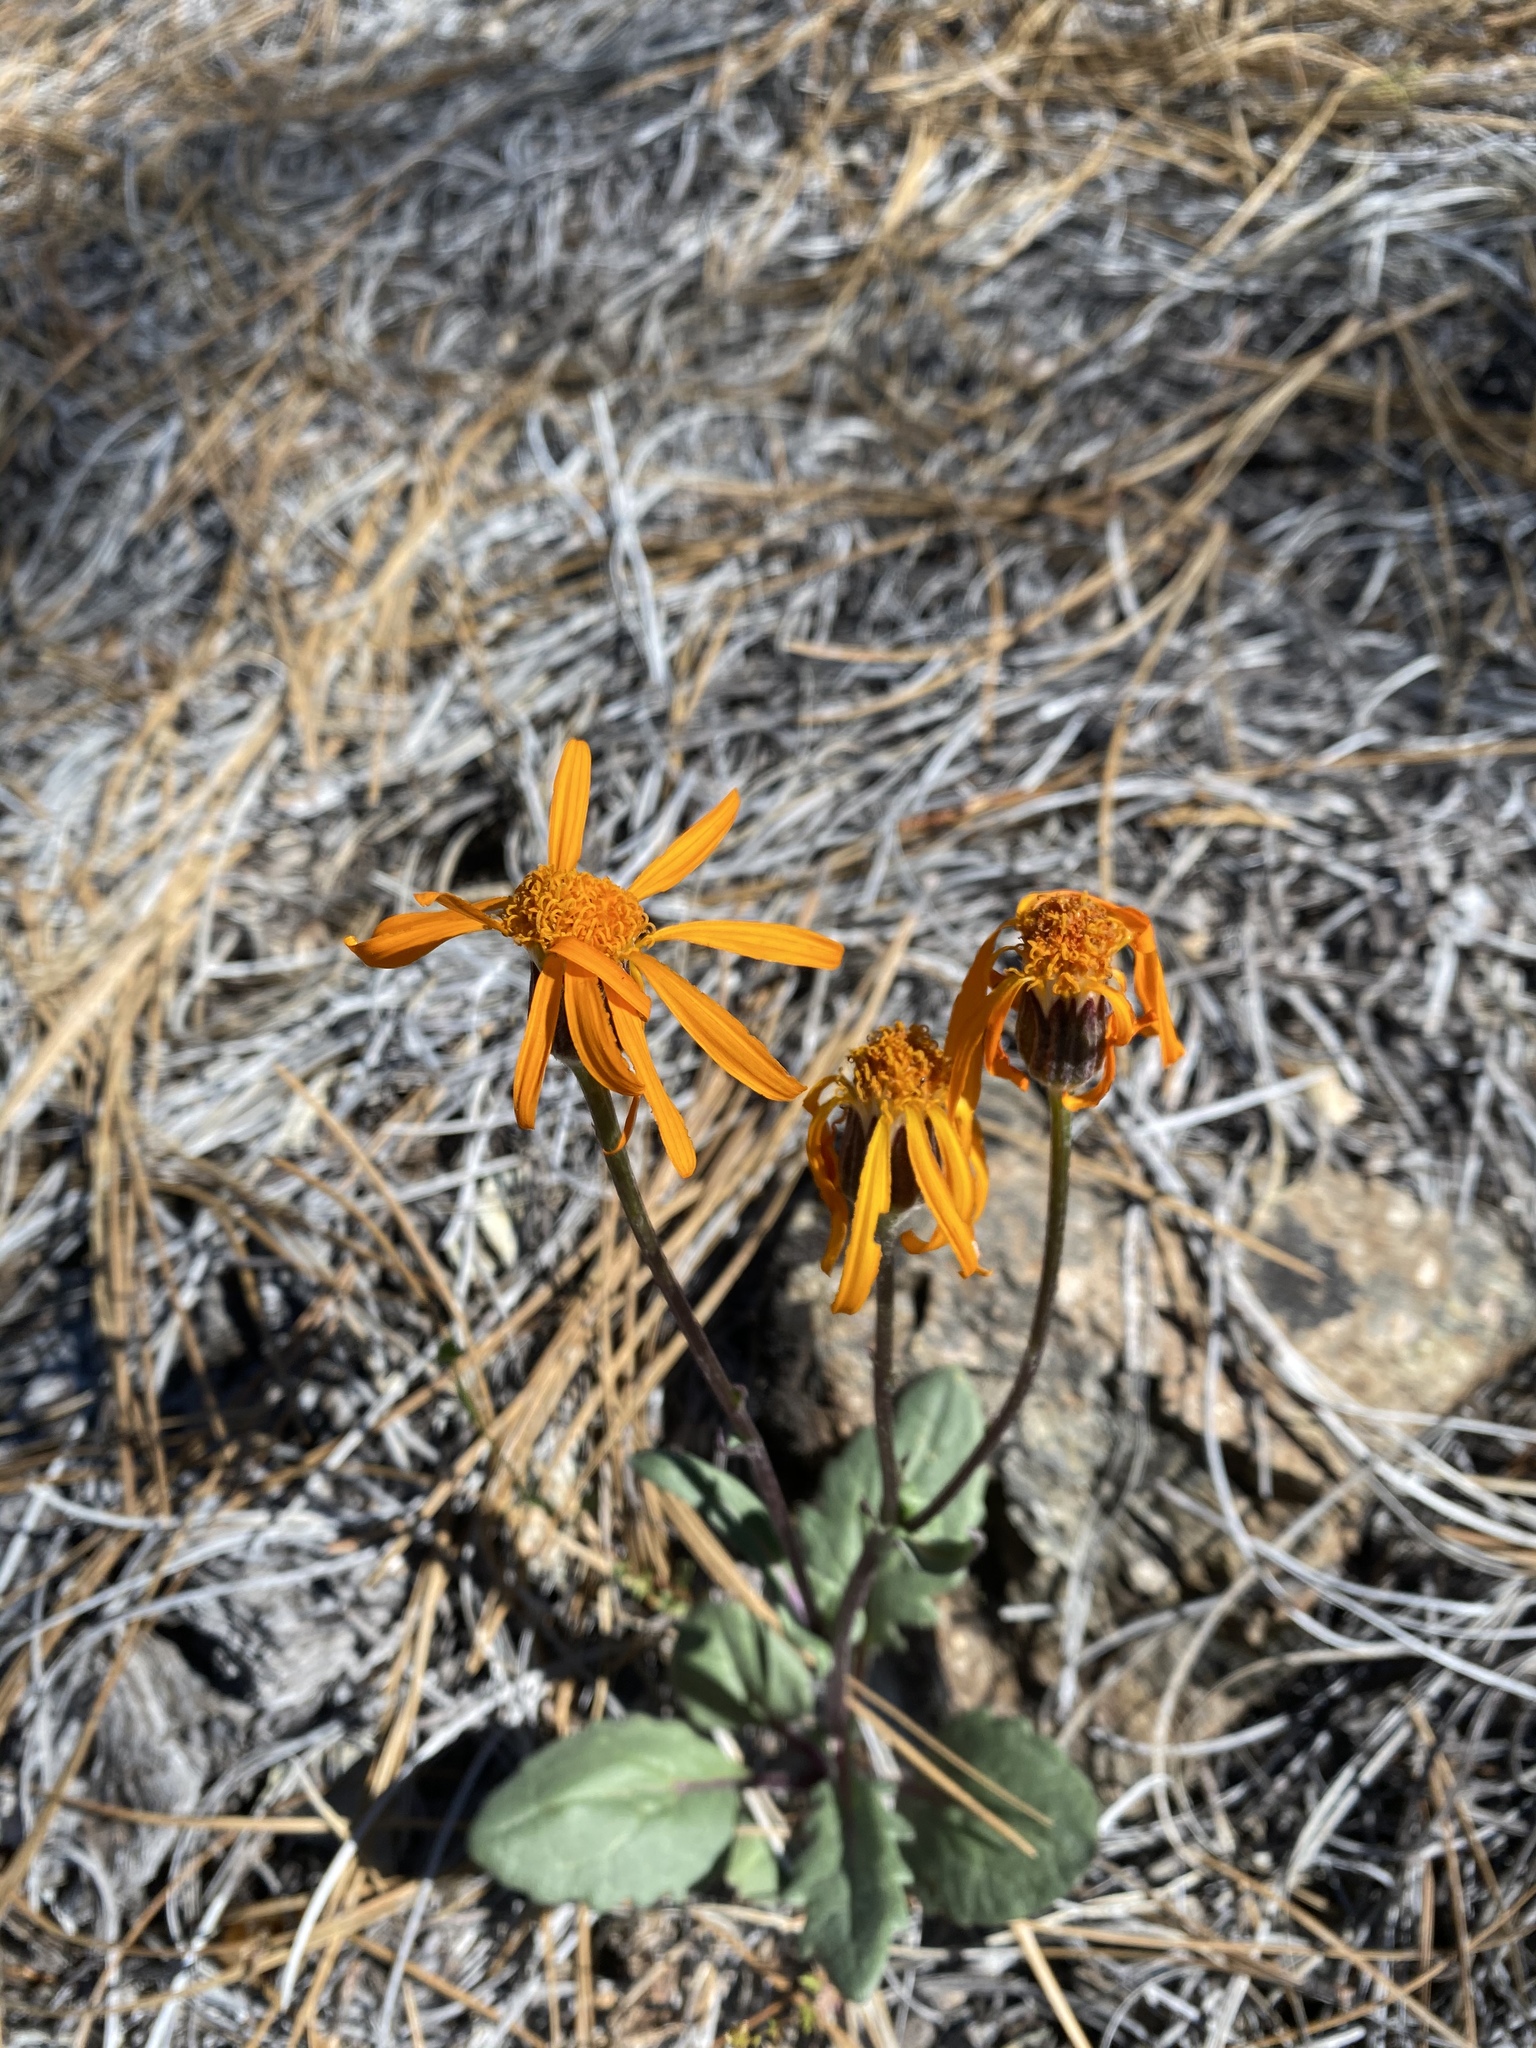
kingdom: Plantae
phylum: Tracheophyta
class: Magnoliopsida
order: Asterales
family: Asteraceae
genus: Packera
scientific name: Packera greenei
